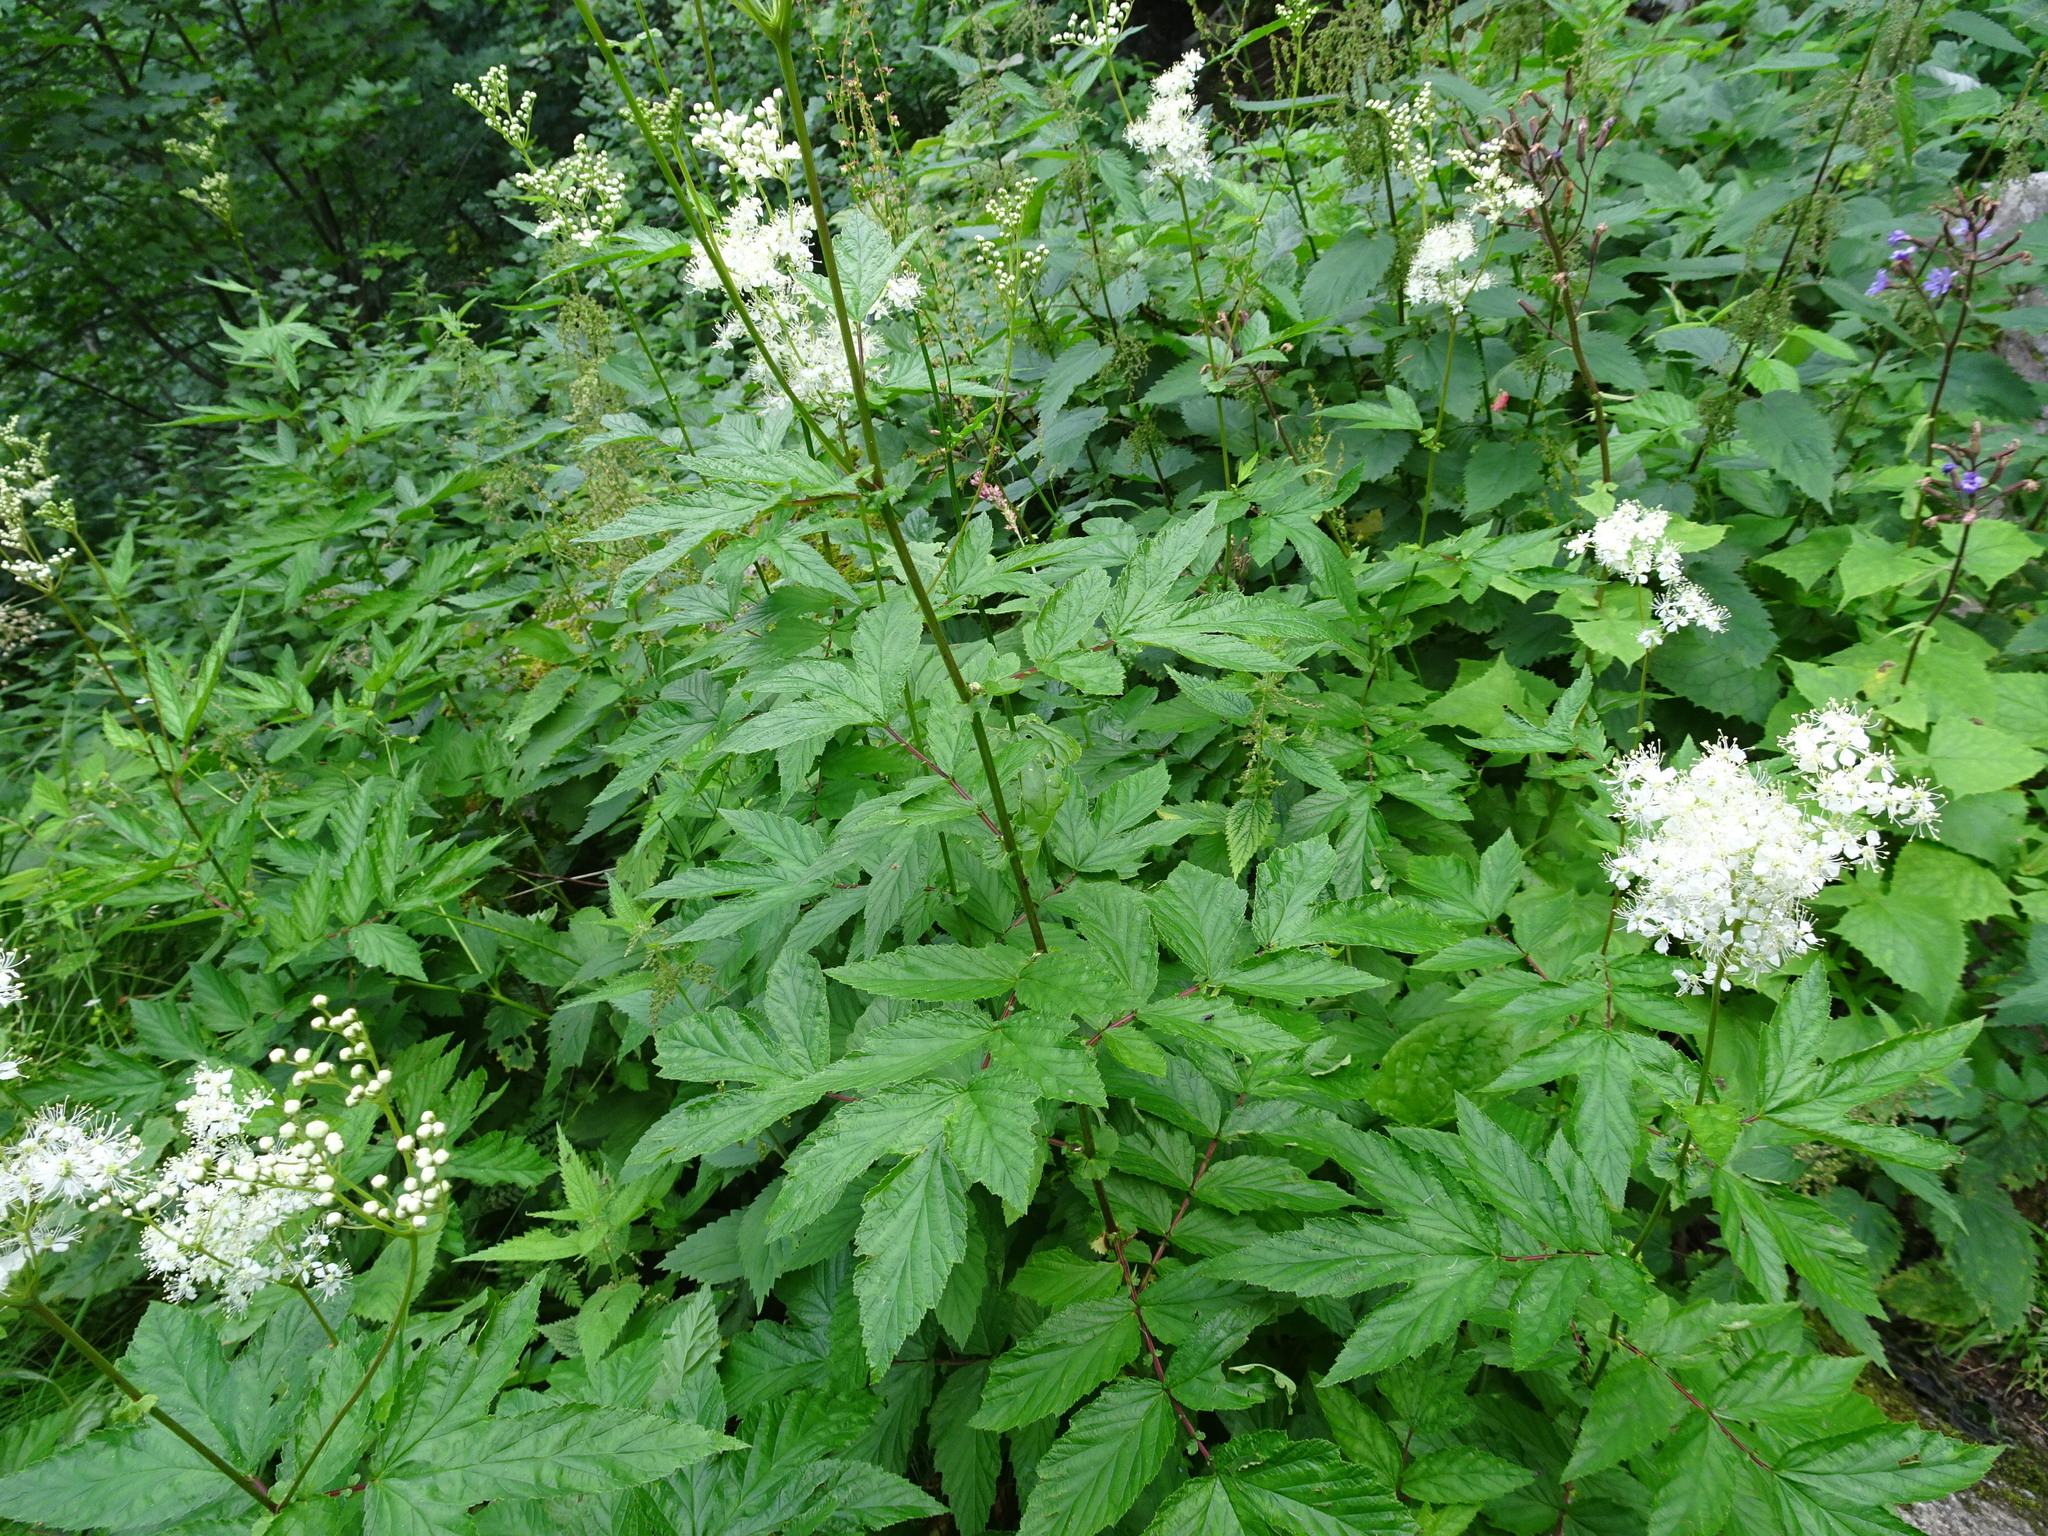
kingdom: Plantae
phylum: Tracheophyta
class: Magnoliopsida
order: Rosales
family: Rosaceae
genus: Filipendula
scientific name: Filipendula ulmaria
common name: Meadowsweet
